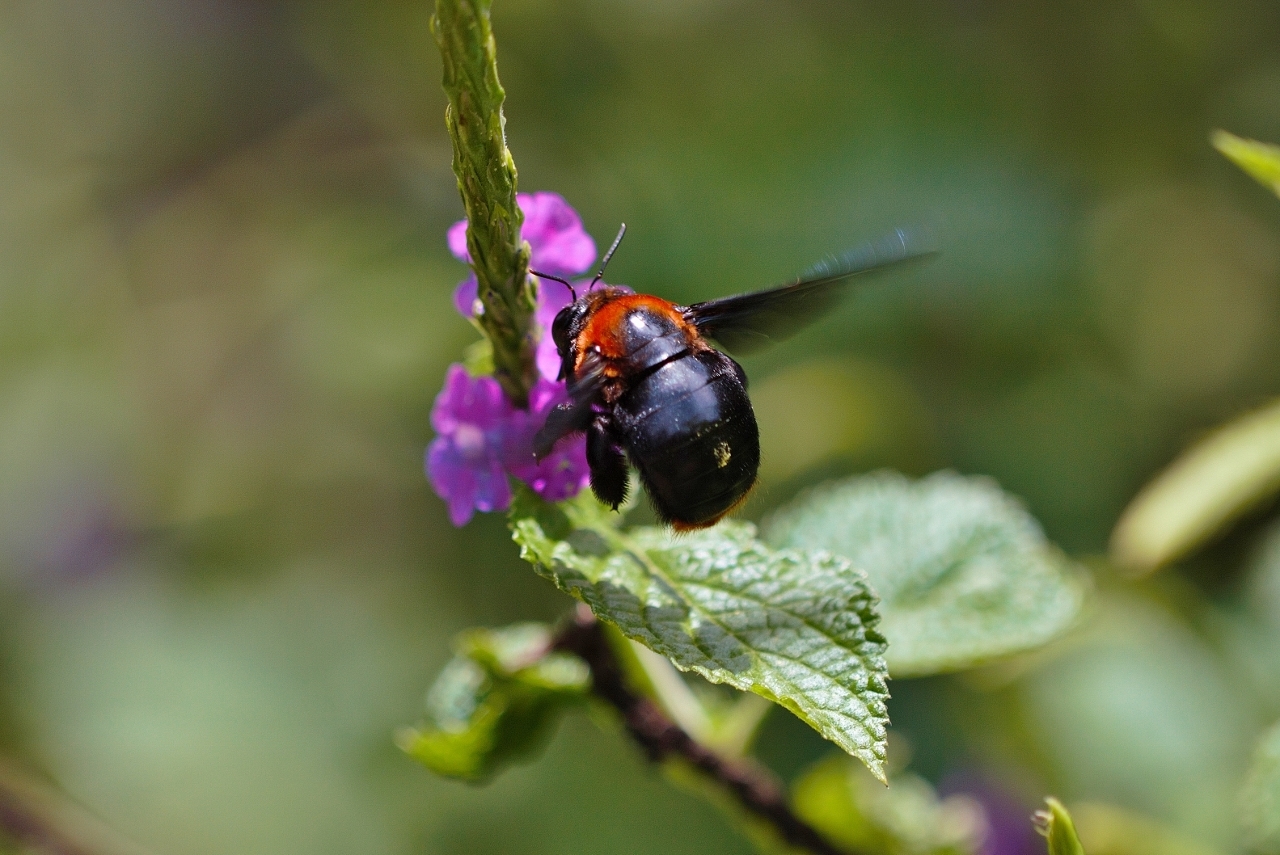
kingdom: Animalia
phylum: Arthropoda
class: Insecta
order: Hymenoptera
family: Apidae
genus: Xylocopa
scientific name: Xylocopa flavorufa
